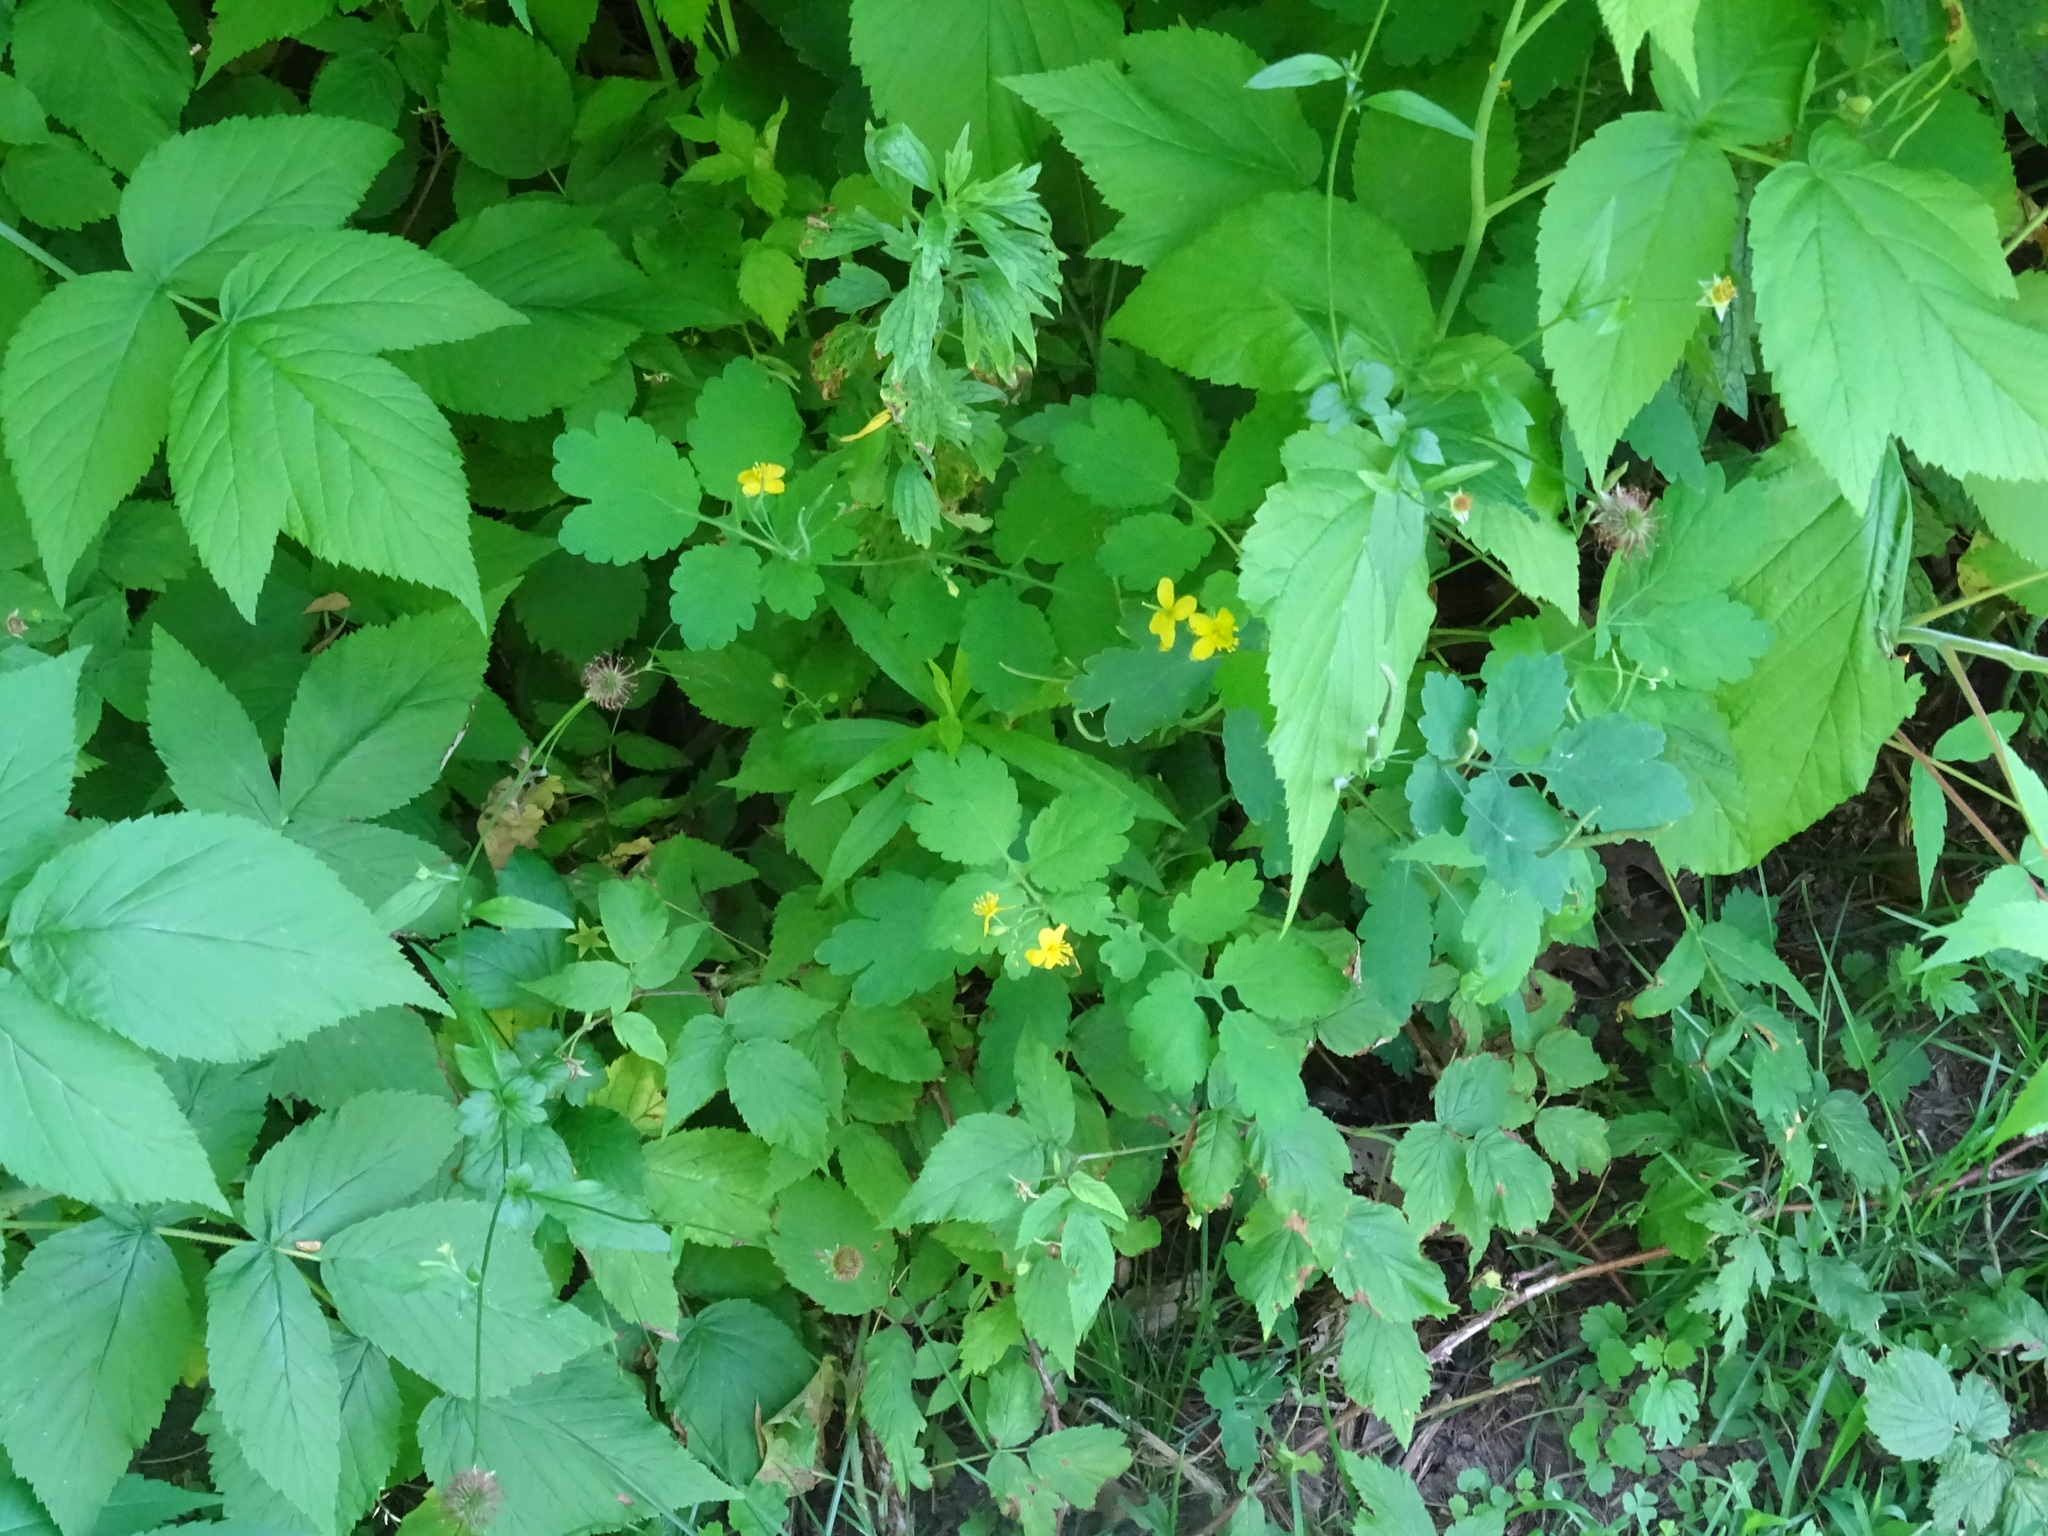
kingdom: Plantae
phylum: Tracheophyta
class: Magnoliopsida
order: Ranunculales
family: Papaveraceae
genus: Chelidonium
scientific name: Chelidonium majus
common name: Greater celandine
